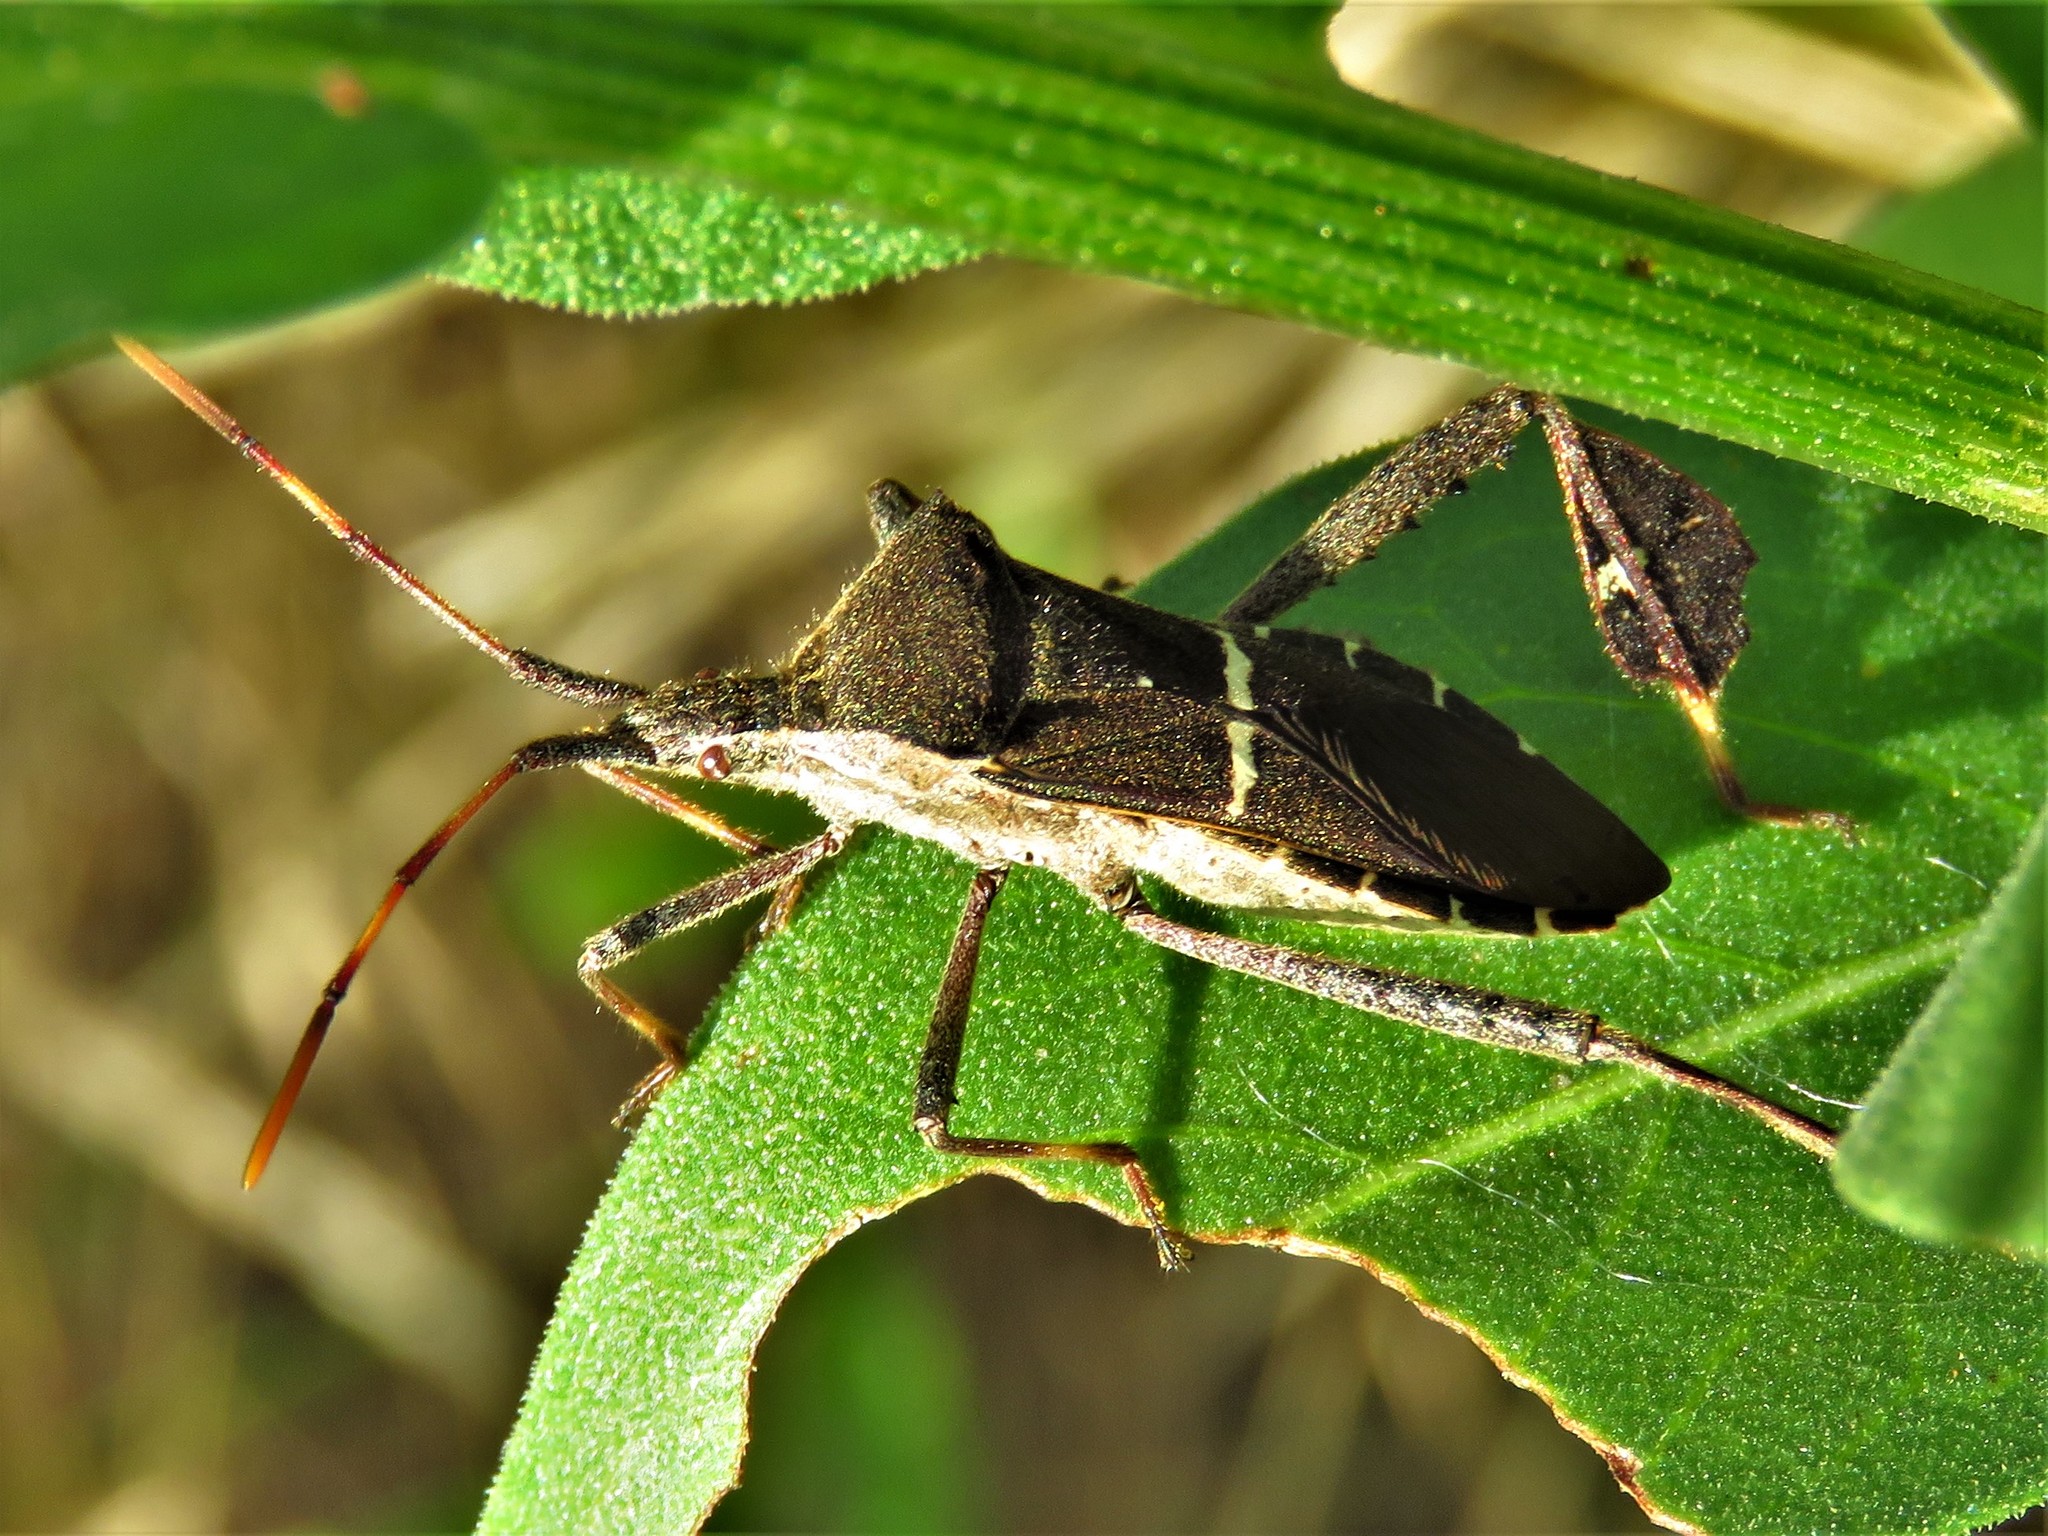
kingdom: Animalia
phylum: Arthropoda
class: Insecta
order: Hemiptera
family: Coreidae
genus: Leptoglossus
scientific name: Leptoglossus phyllopus
